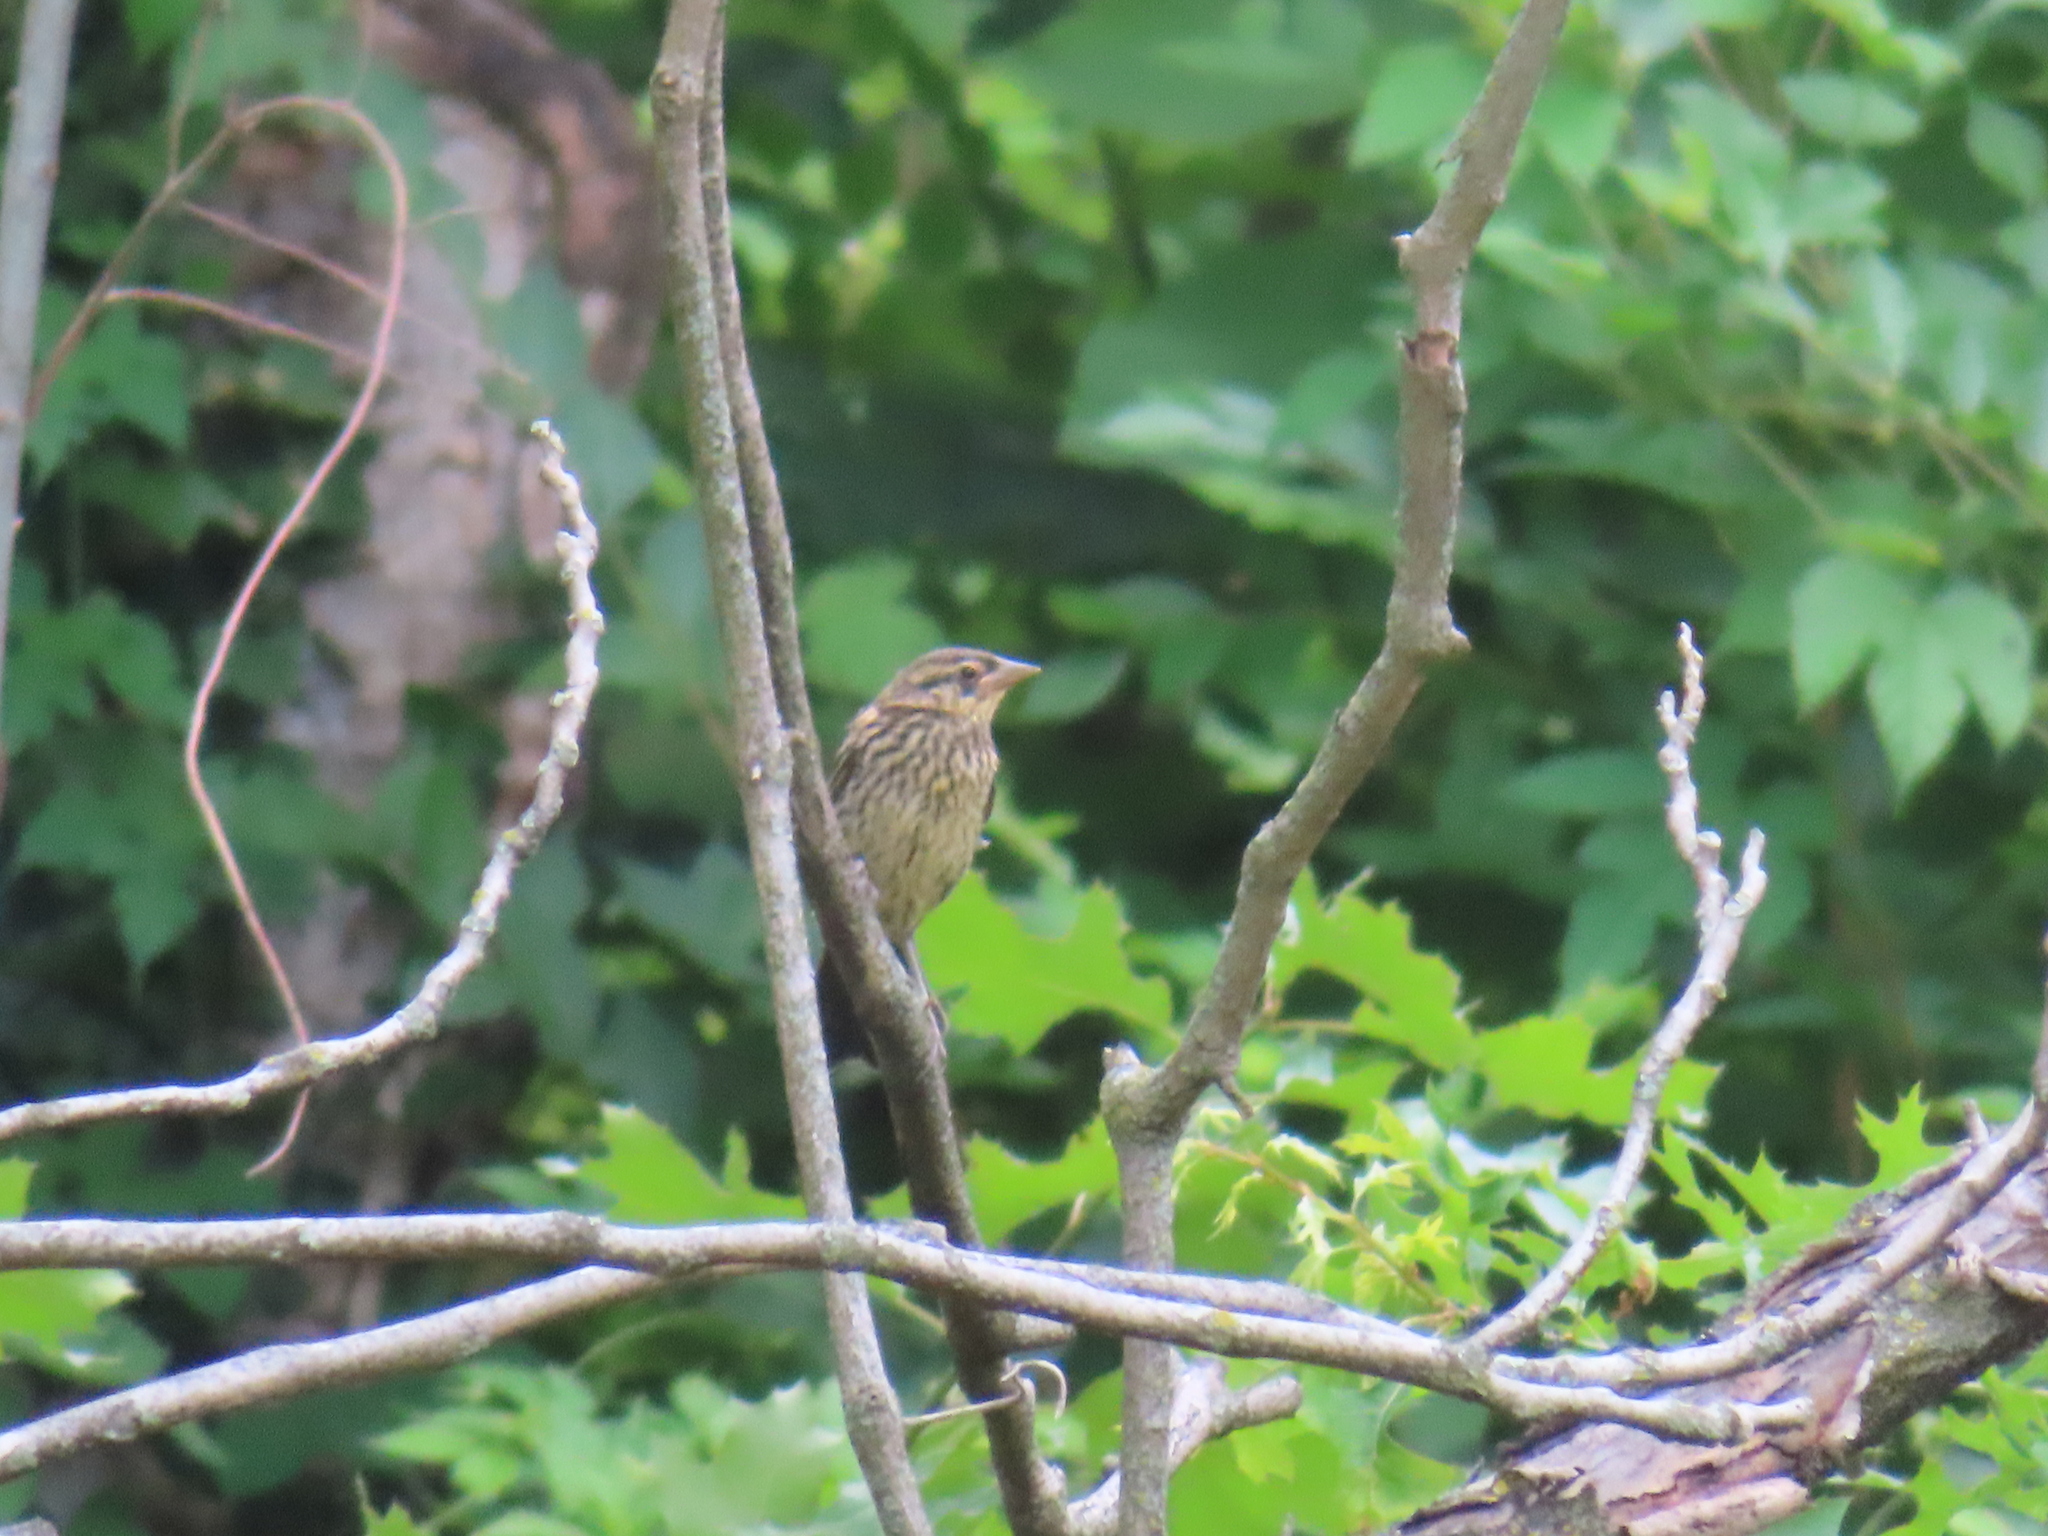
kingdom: Animalia
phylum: Chordata
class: Aves
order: Passeriformes
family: Icteridae
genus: Agelaius
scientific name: Agelaius phoeniceus
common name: Red-winged blackbird
